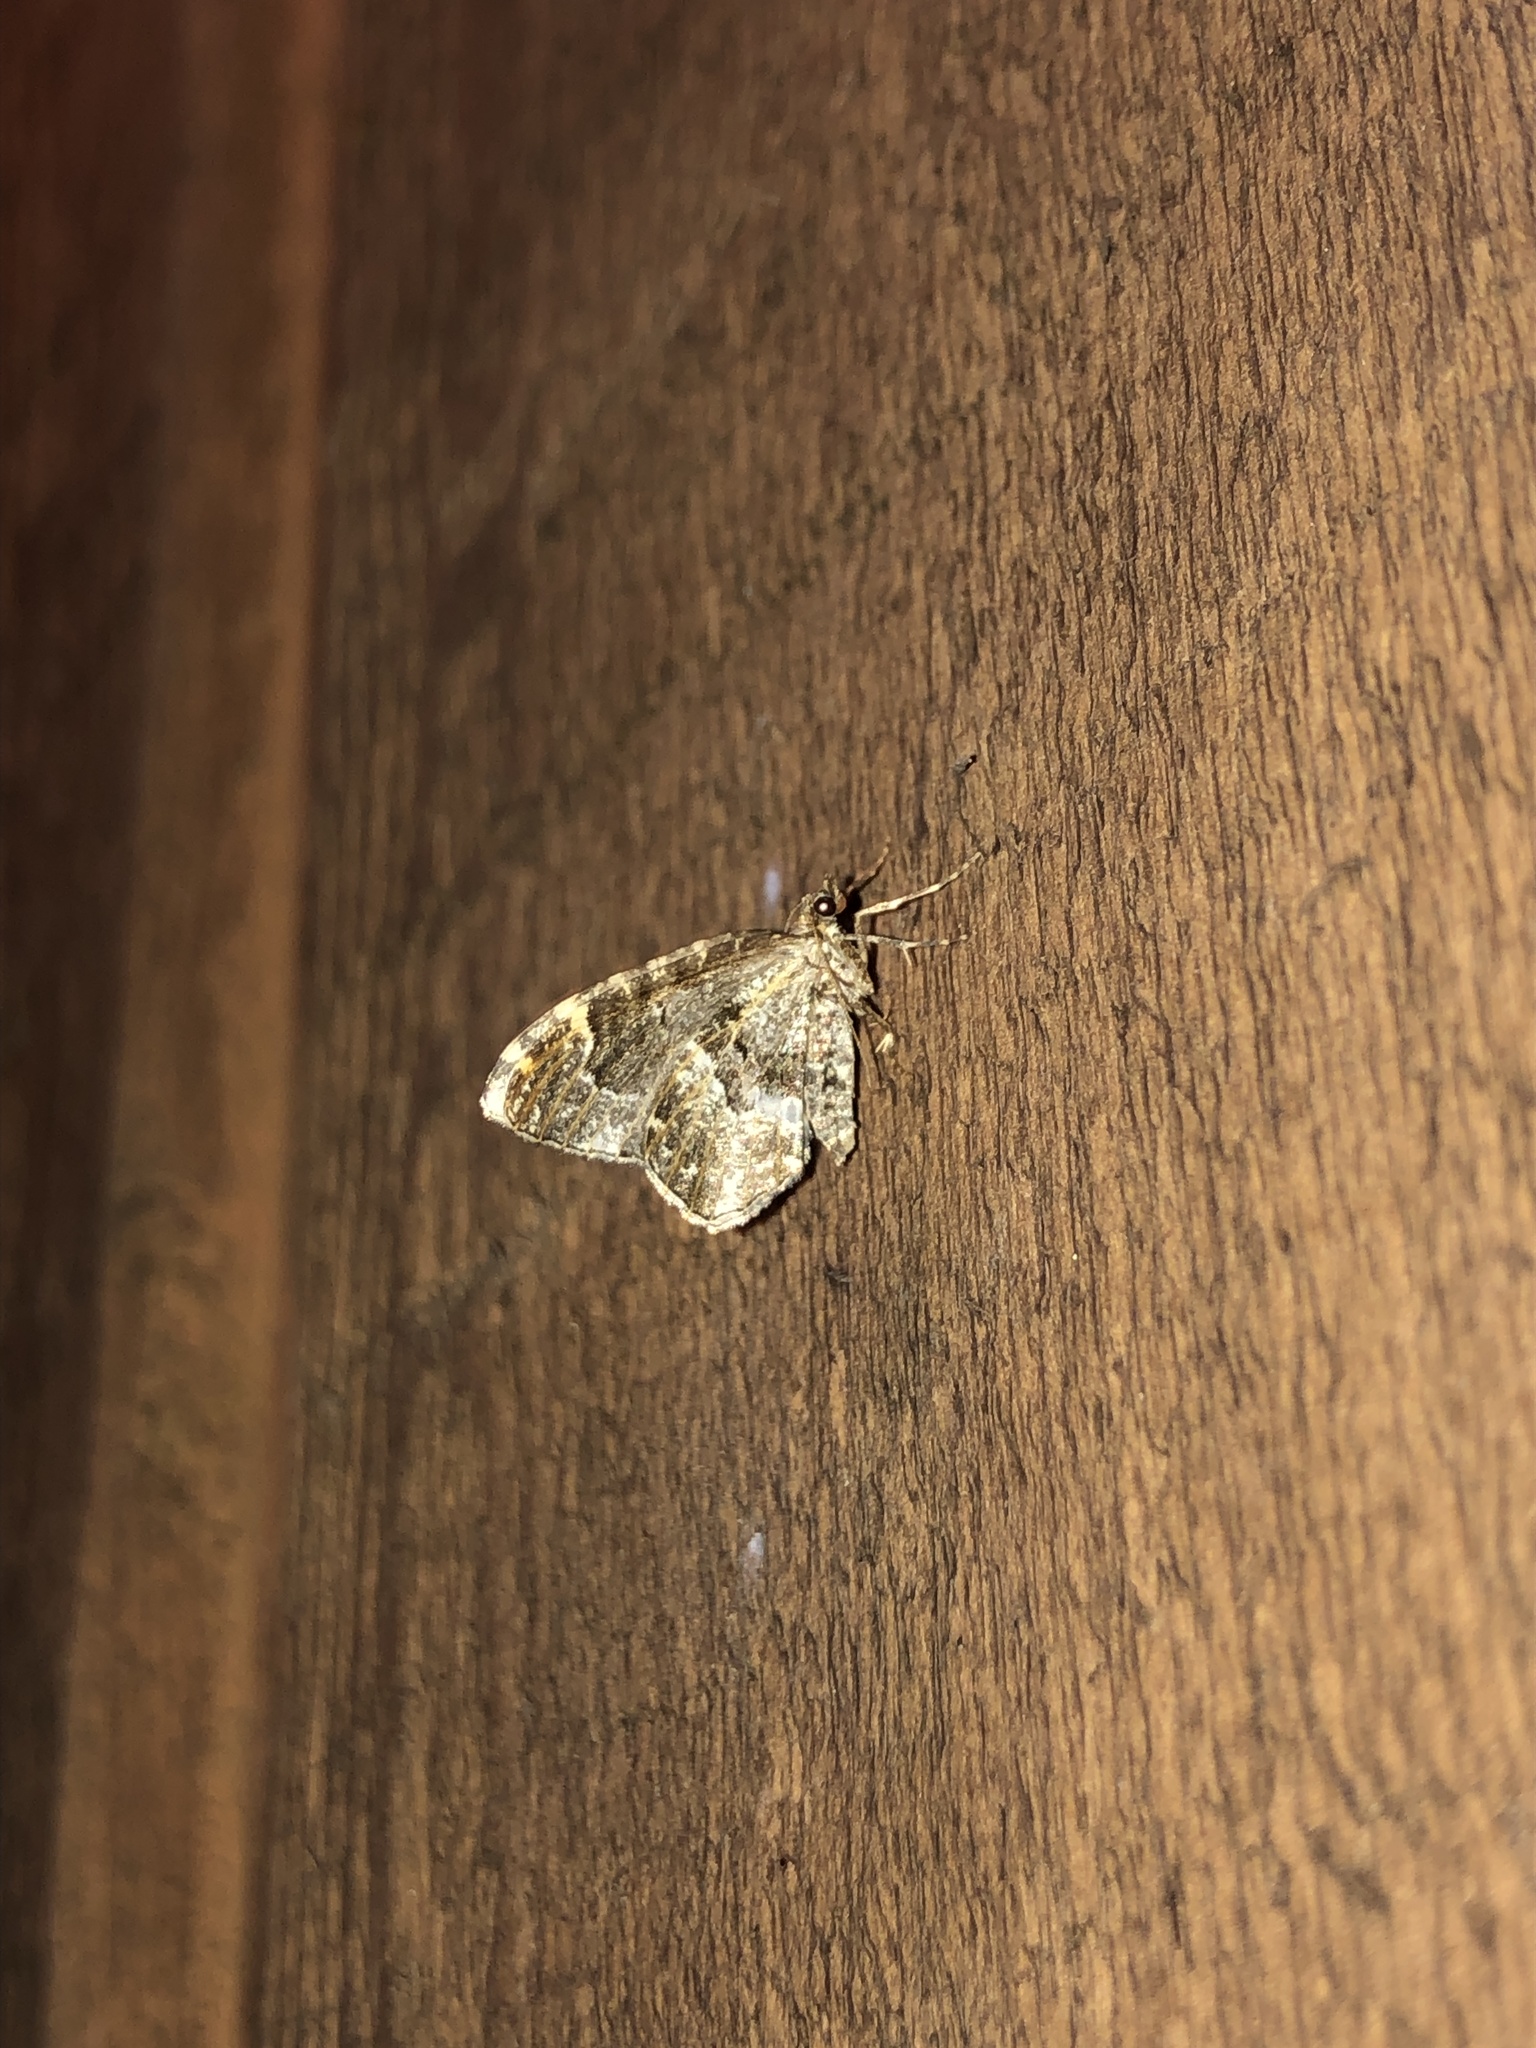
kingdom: Animalia
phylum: Arthropoda
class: Insecta
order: Lepidoptera
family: Geometridae
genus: Ceratodalia
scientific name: Ceratodalia gueneata
